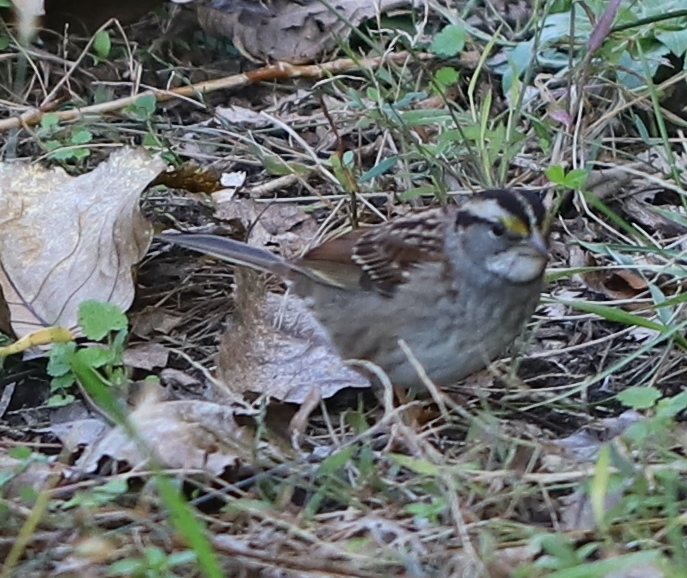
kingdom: Animalia
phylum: Chordata
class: Aves
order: Passeriformes
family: Passerellidae
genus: Zonotrichia
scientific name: Zonotrichia albicollis
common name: White-throated sparrow
